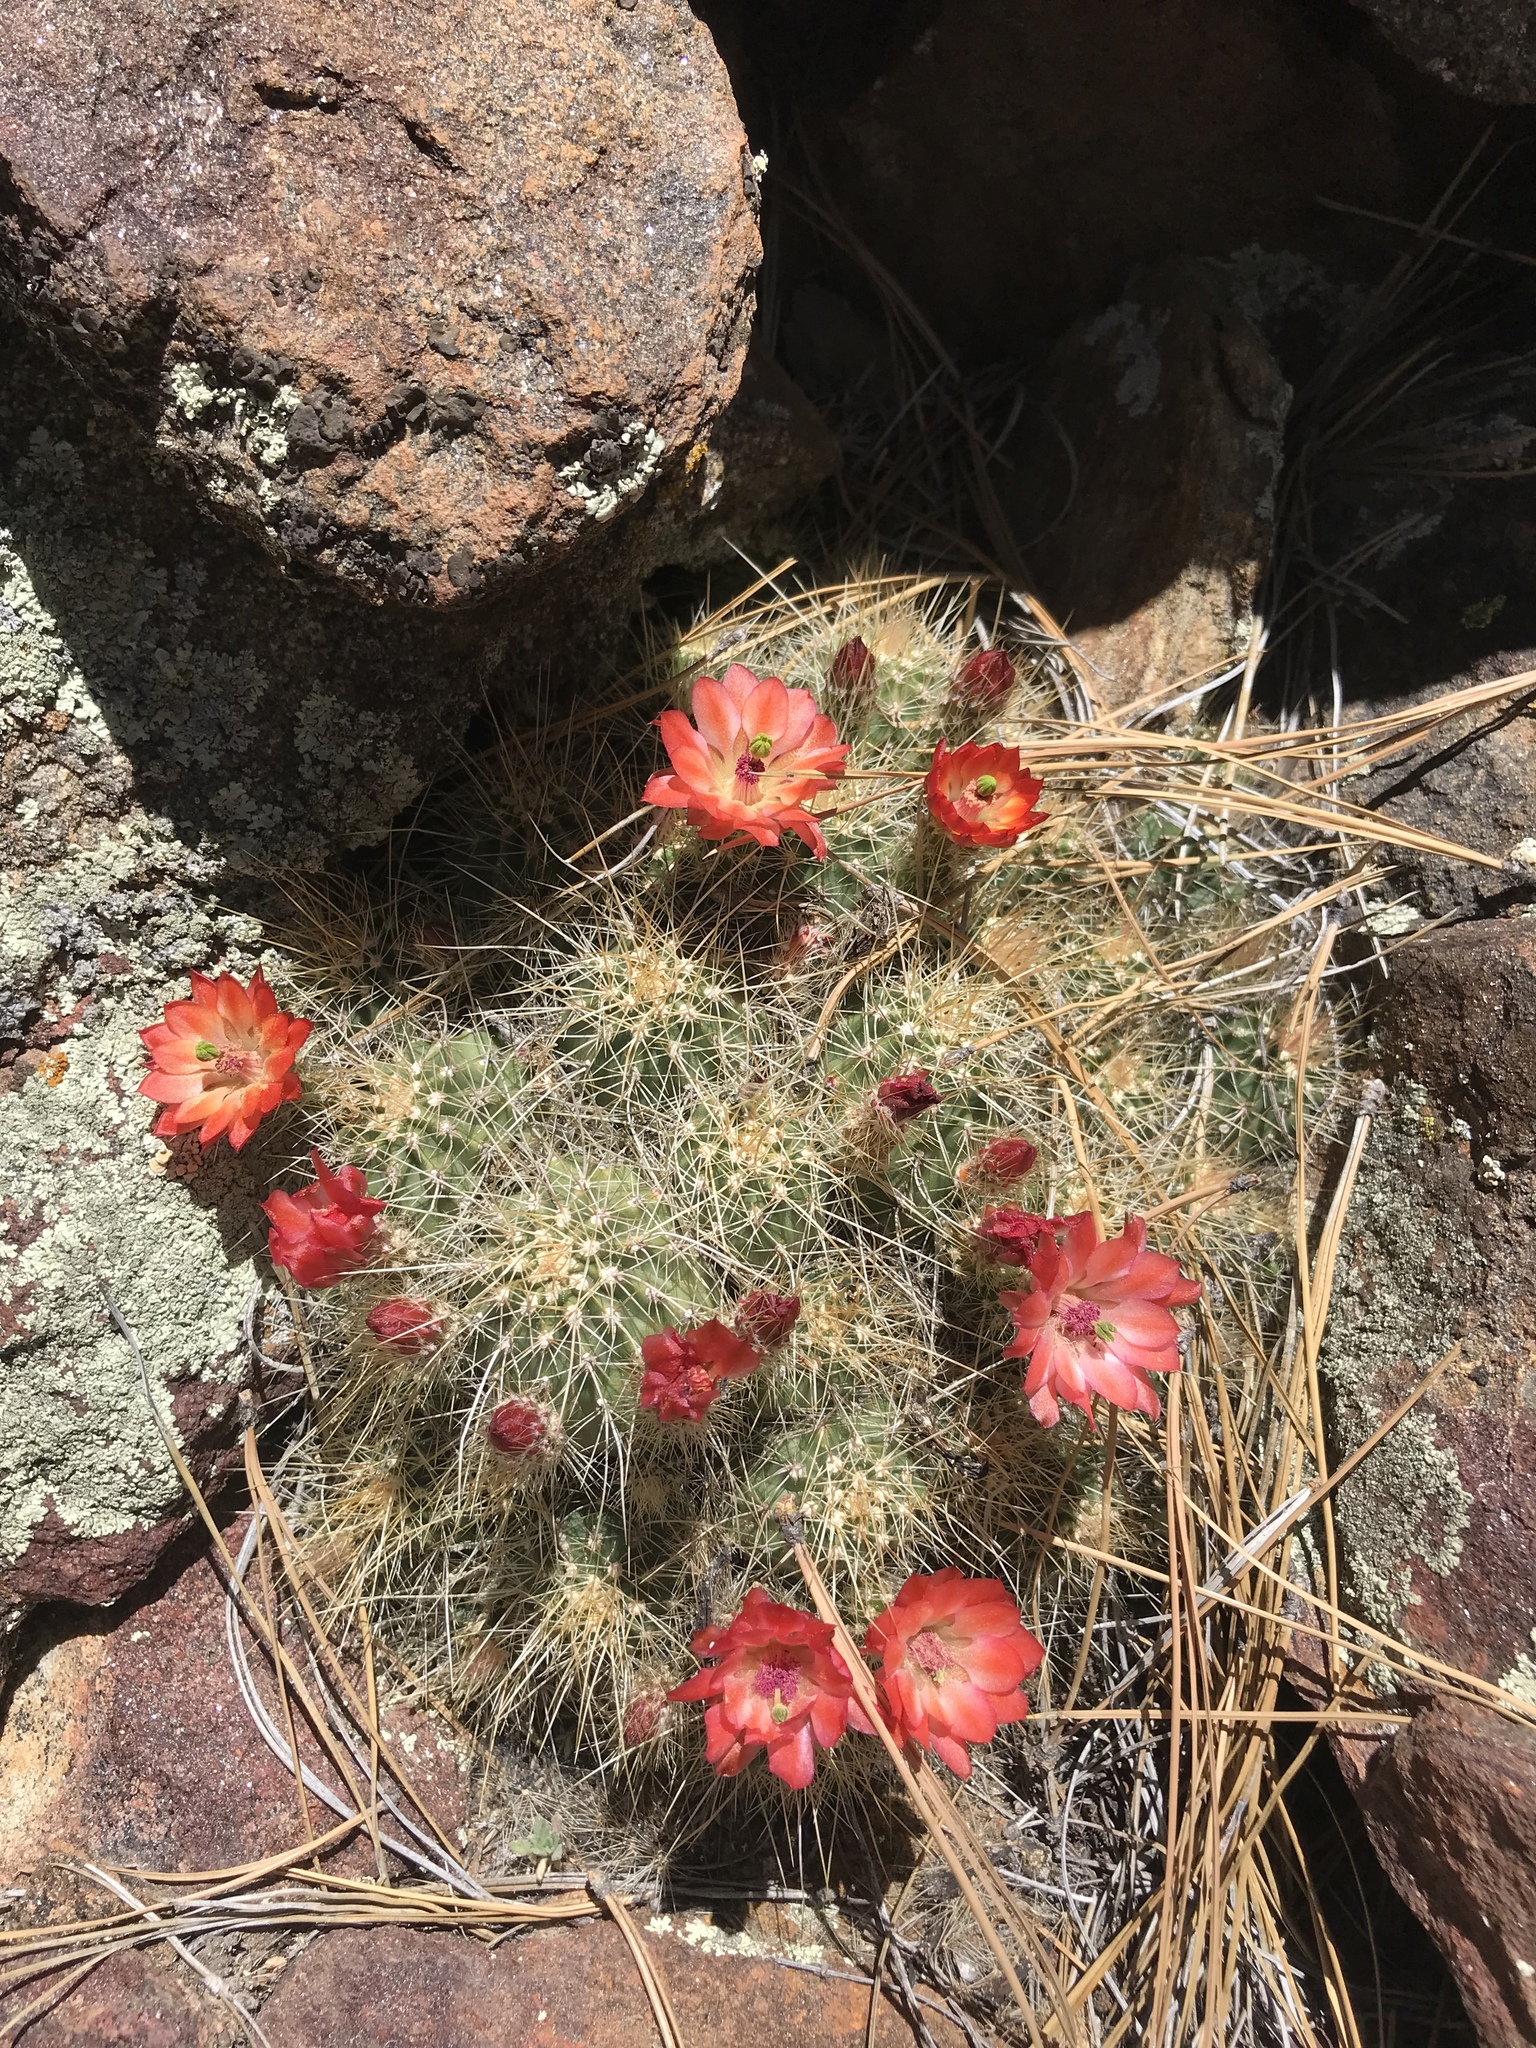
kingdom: Plantae
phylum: Tracheophyta
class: Magnoliopsida
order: Caryophyllales
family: Cactaceae
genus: Echinocereus
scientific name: Echinocereus pacificus
